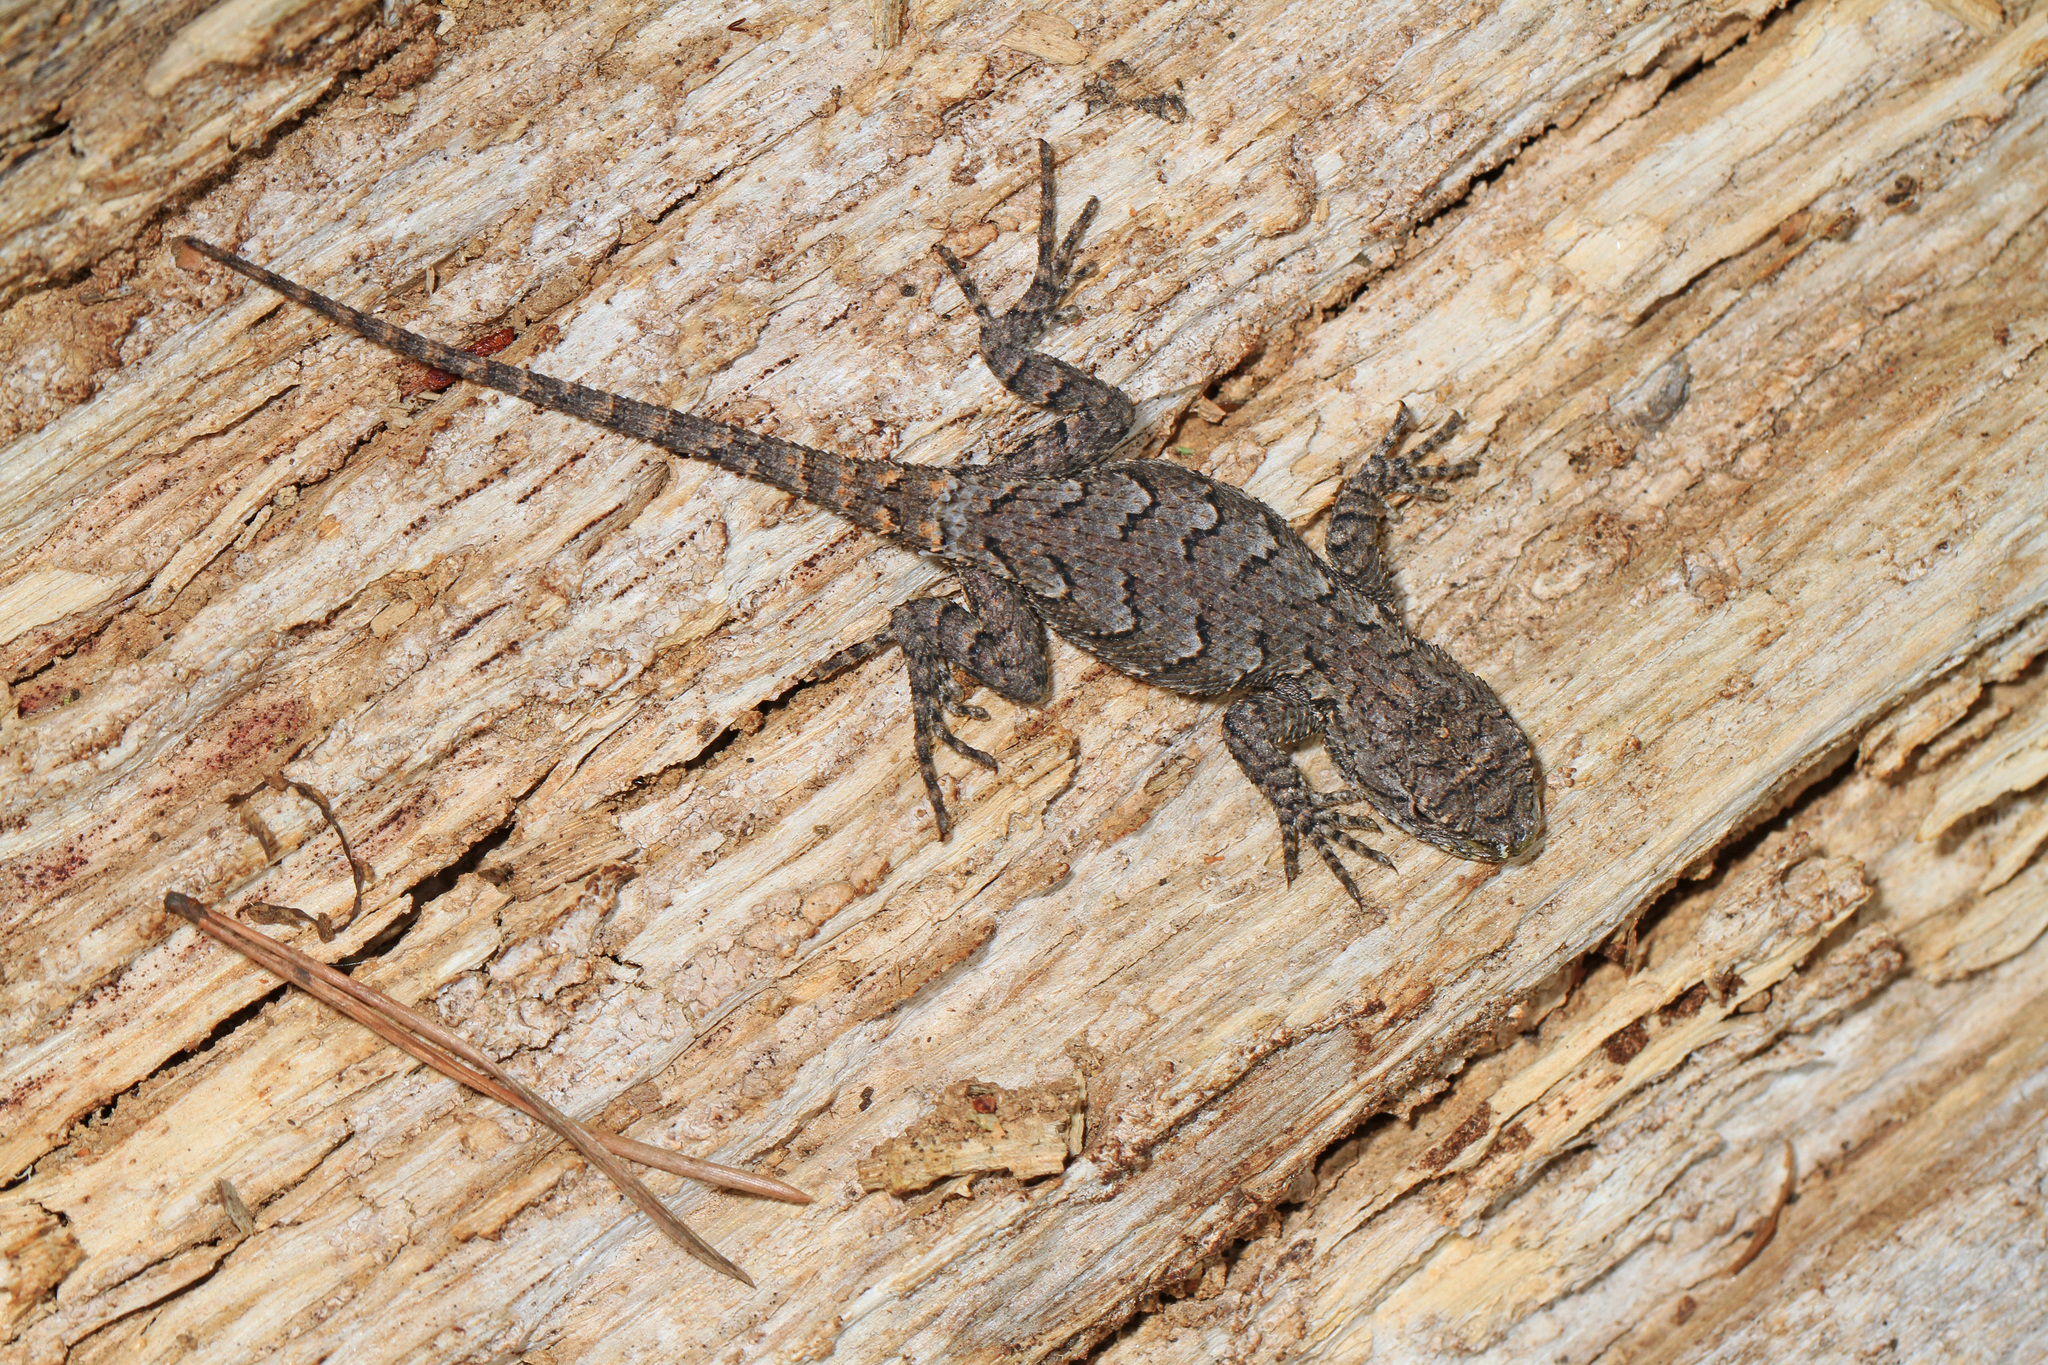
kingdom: Animalia
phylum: Chordata
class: Squamata
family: Phrynosomatidae
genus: Sceloporus
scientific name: Sceloporus undulatus
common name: Eastern fence lizard
